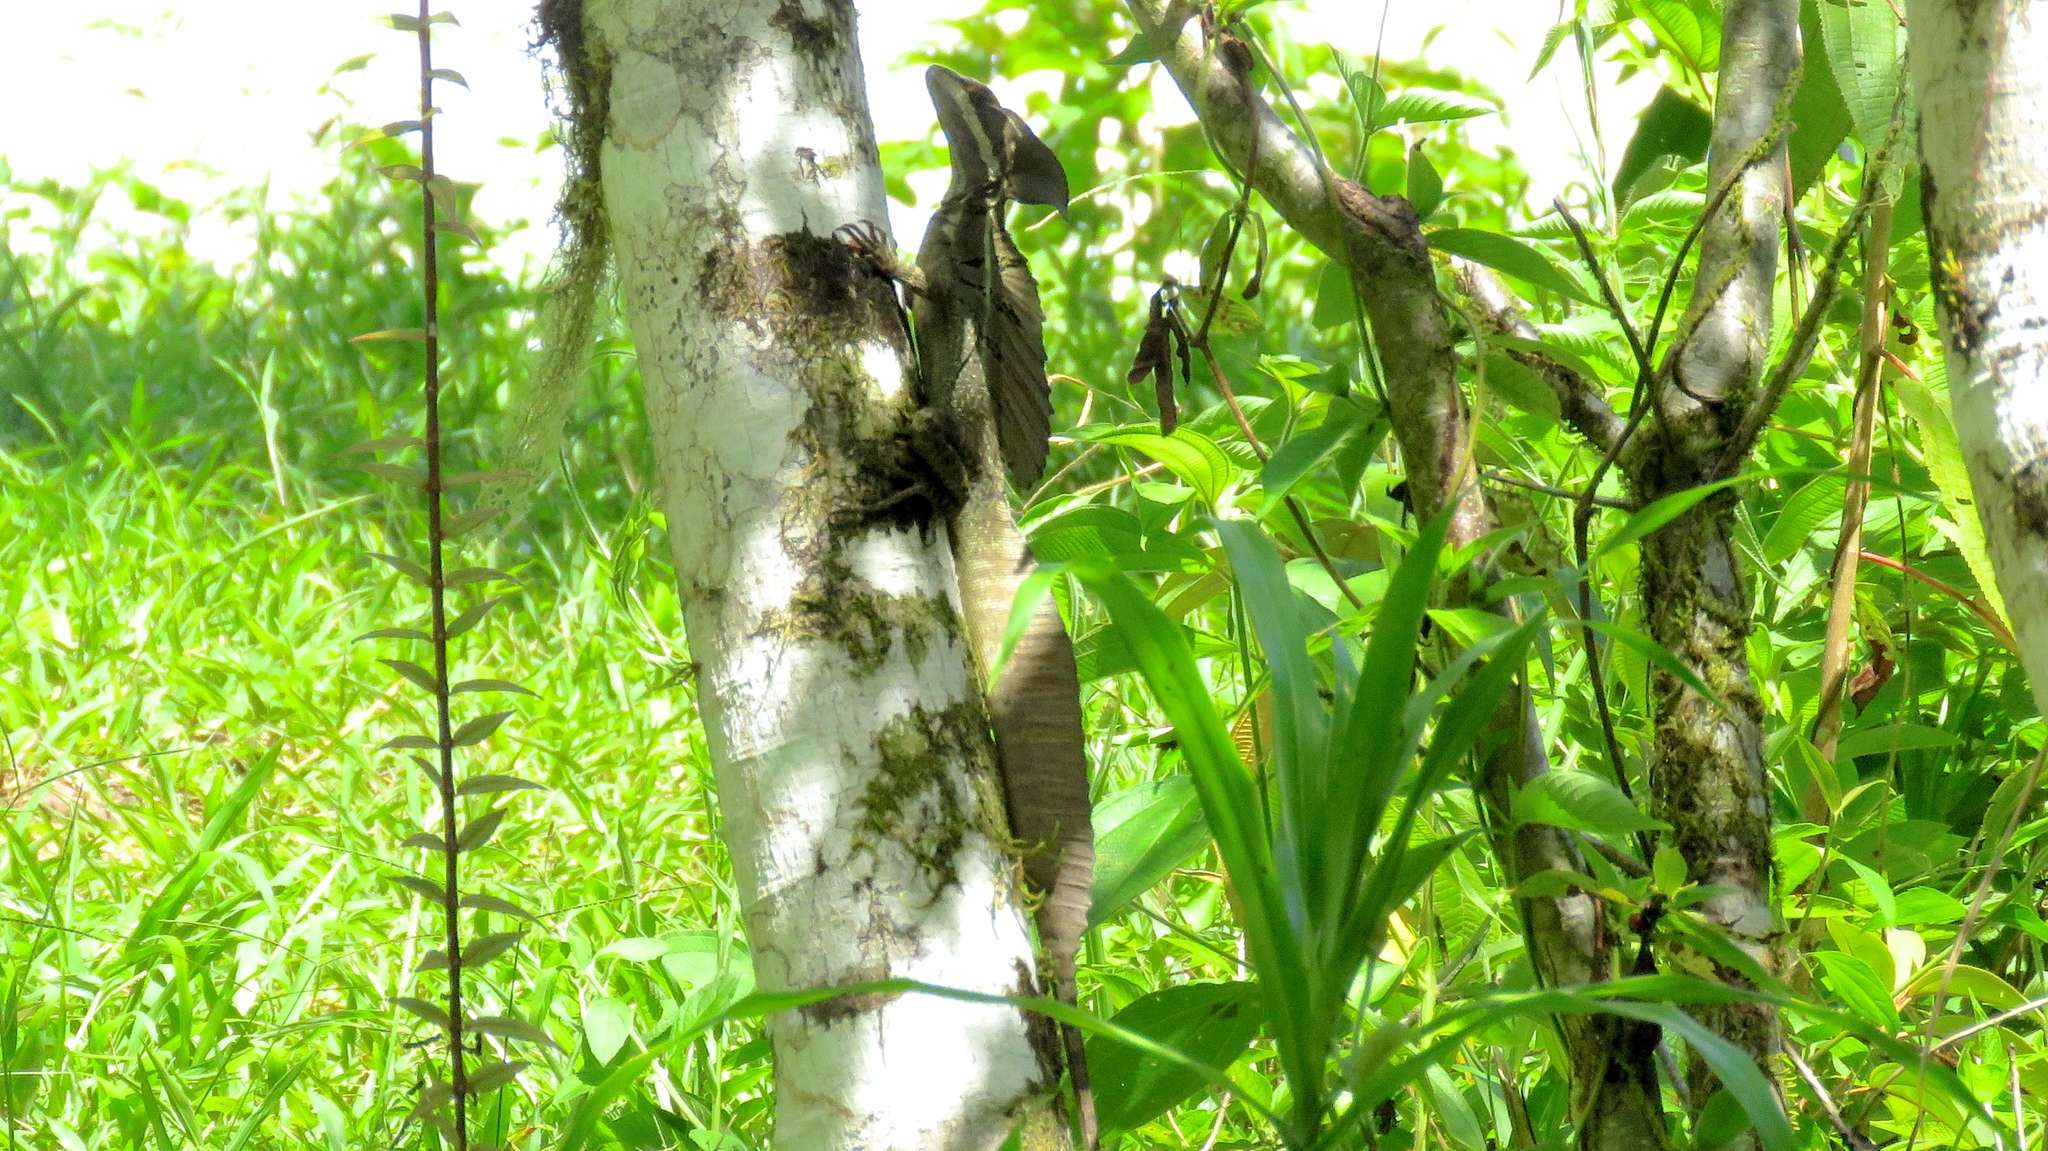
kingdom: Animalia
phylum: Chordata
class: Squamata
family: Corytophanidae
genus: Basiliscus
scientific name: Basiliscus basiliscus
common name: Common basilisk
